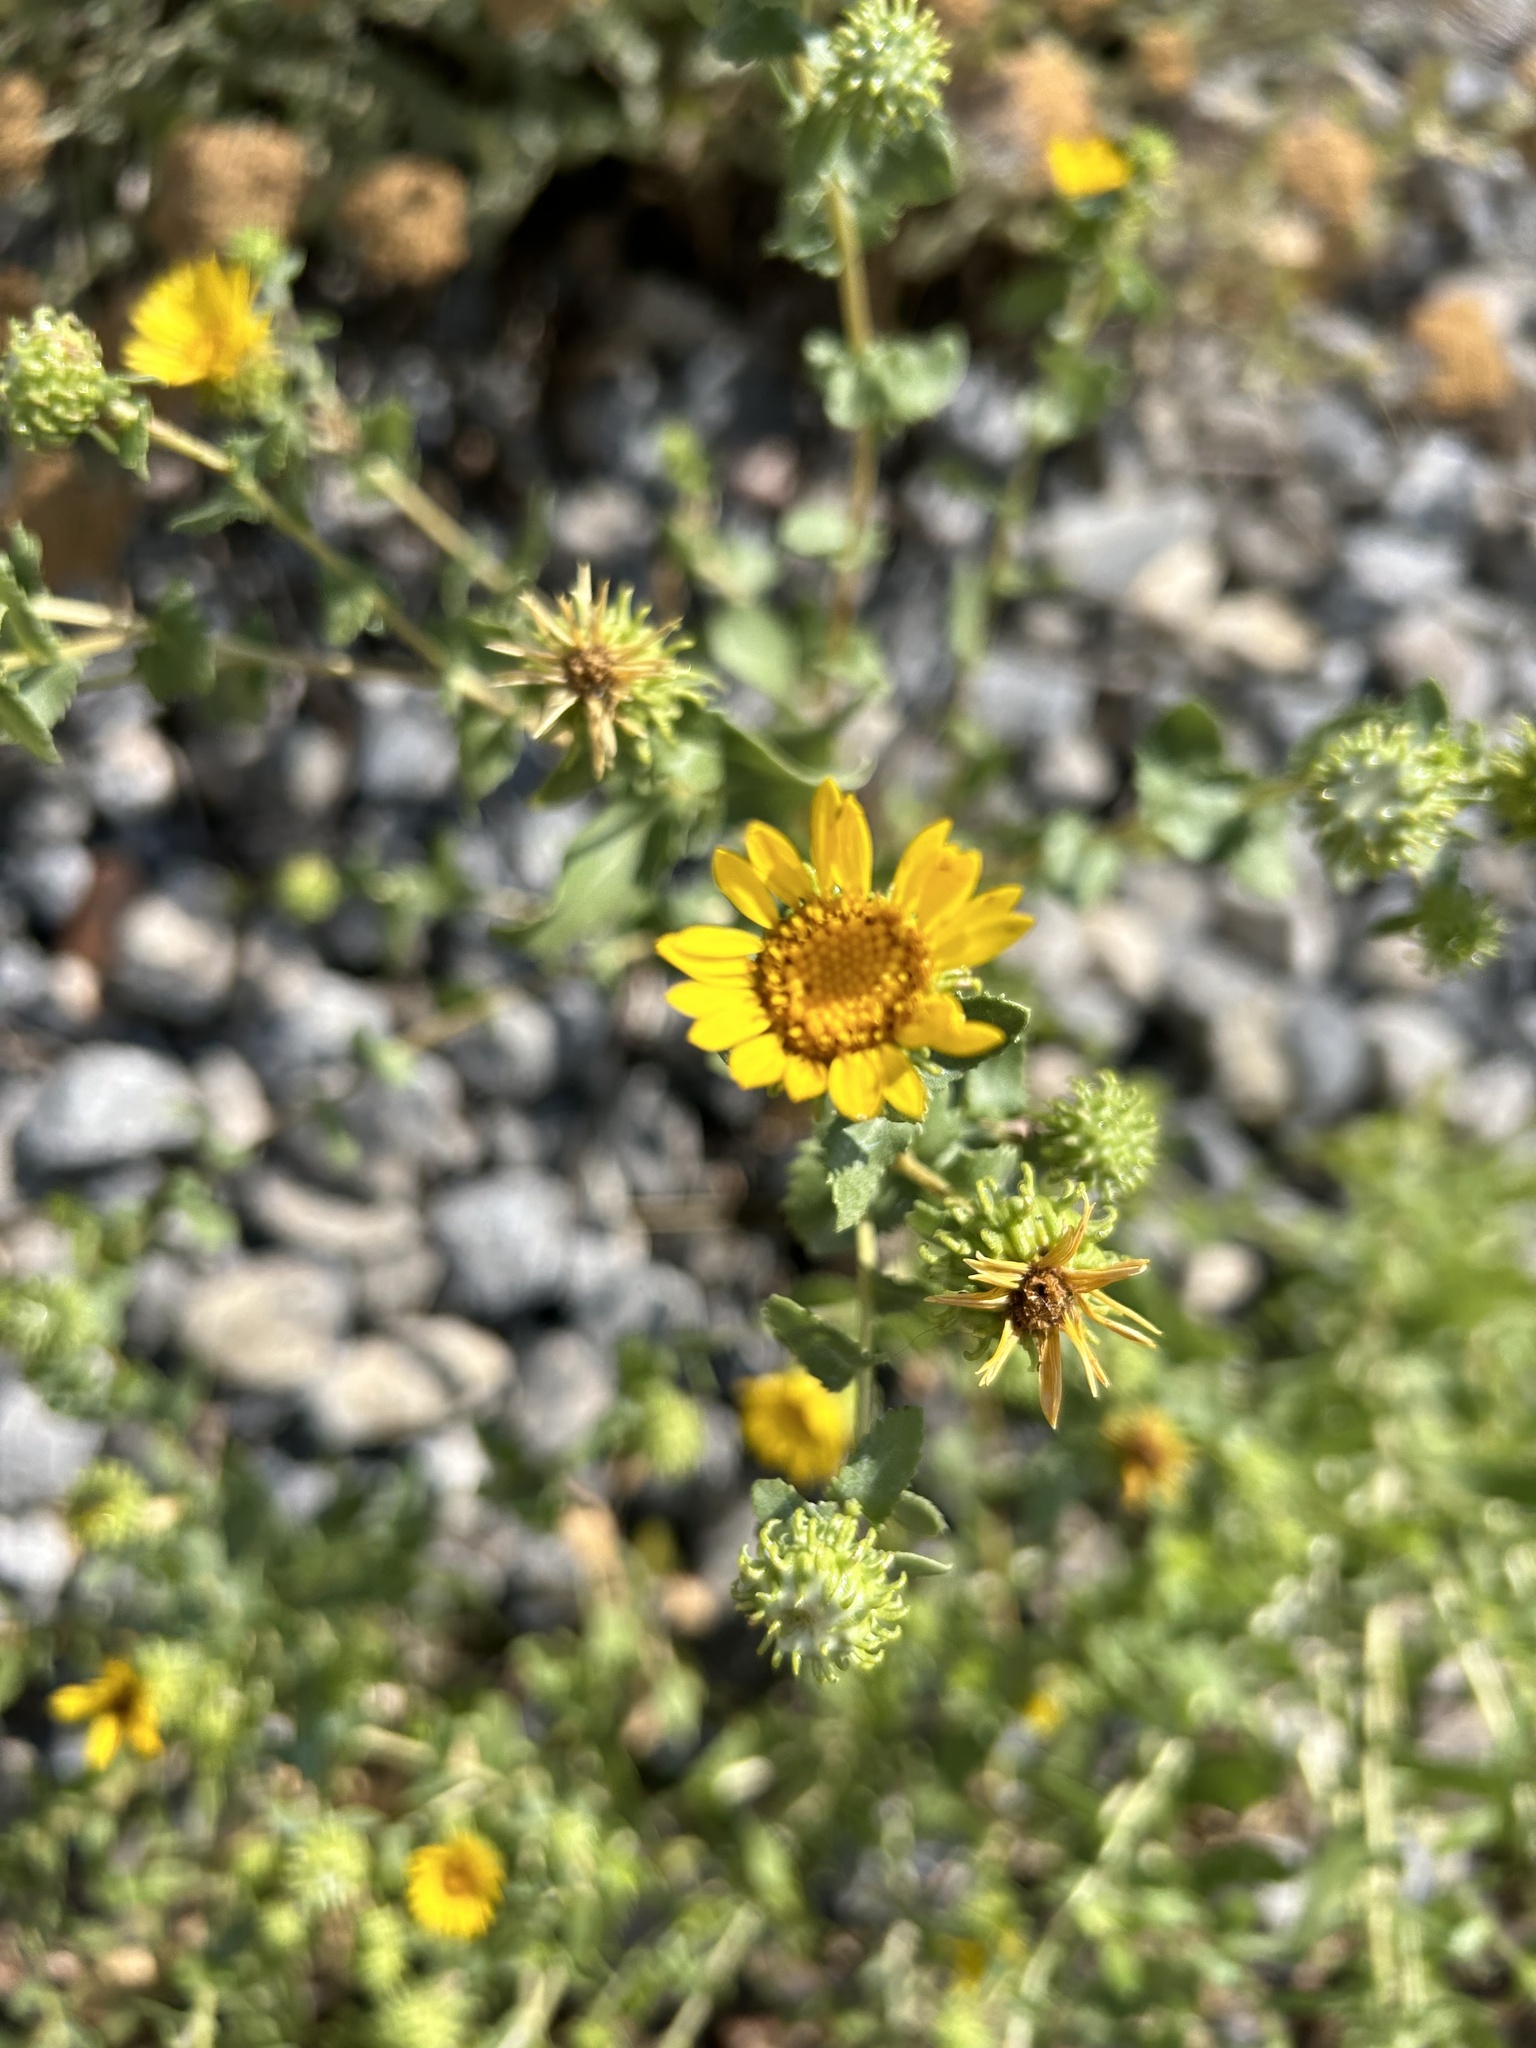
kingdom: Plantae
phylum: Tracheophyta
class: Magnoliopsida
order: Asterales
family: Asteraceae
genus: Grindelia
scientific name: Grindelia squarrosa
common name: Curly-cup gumweed
